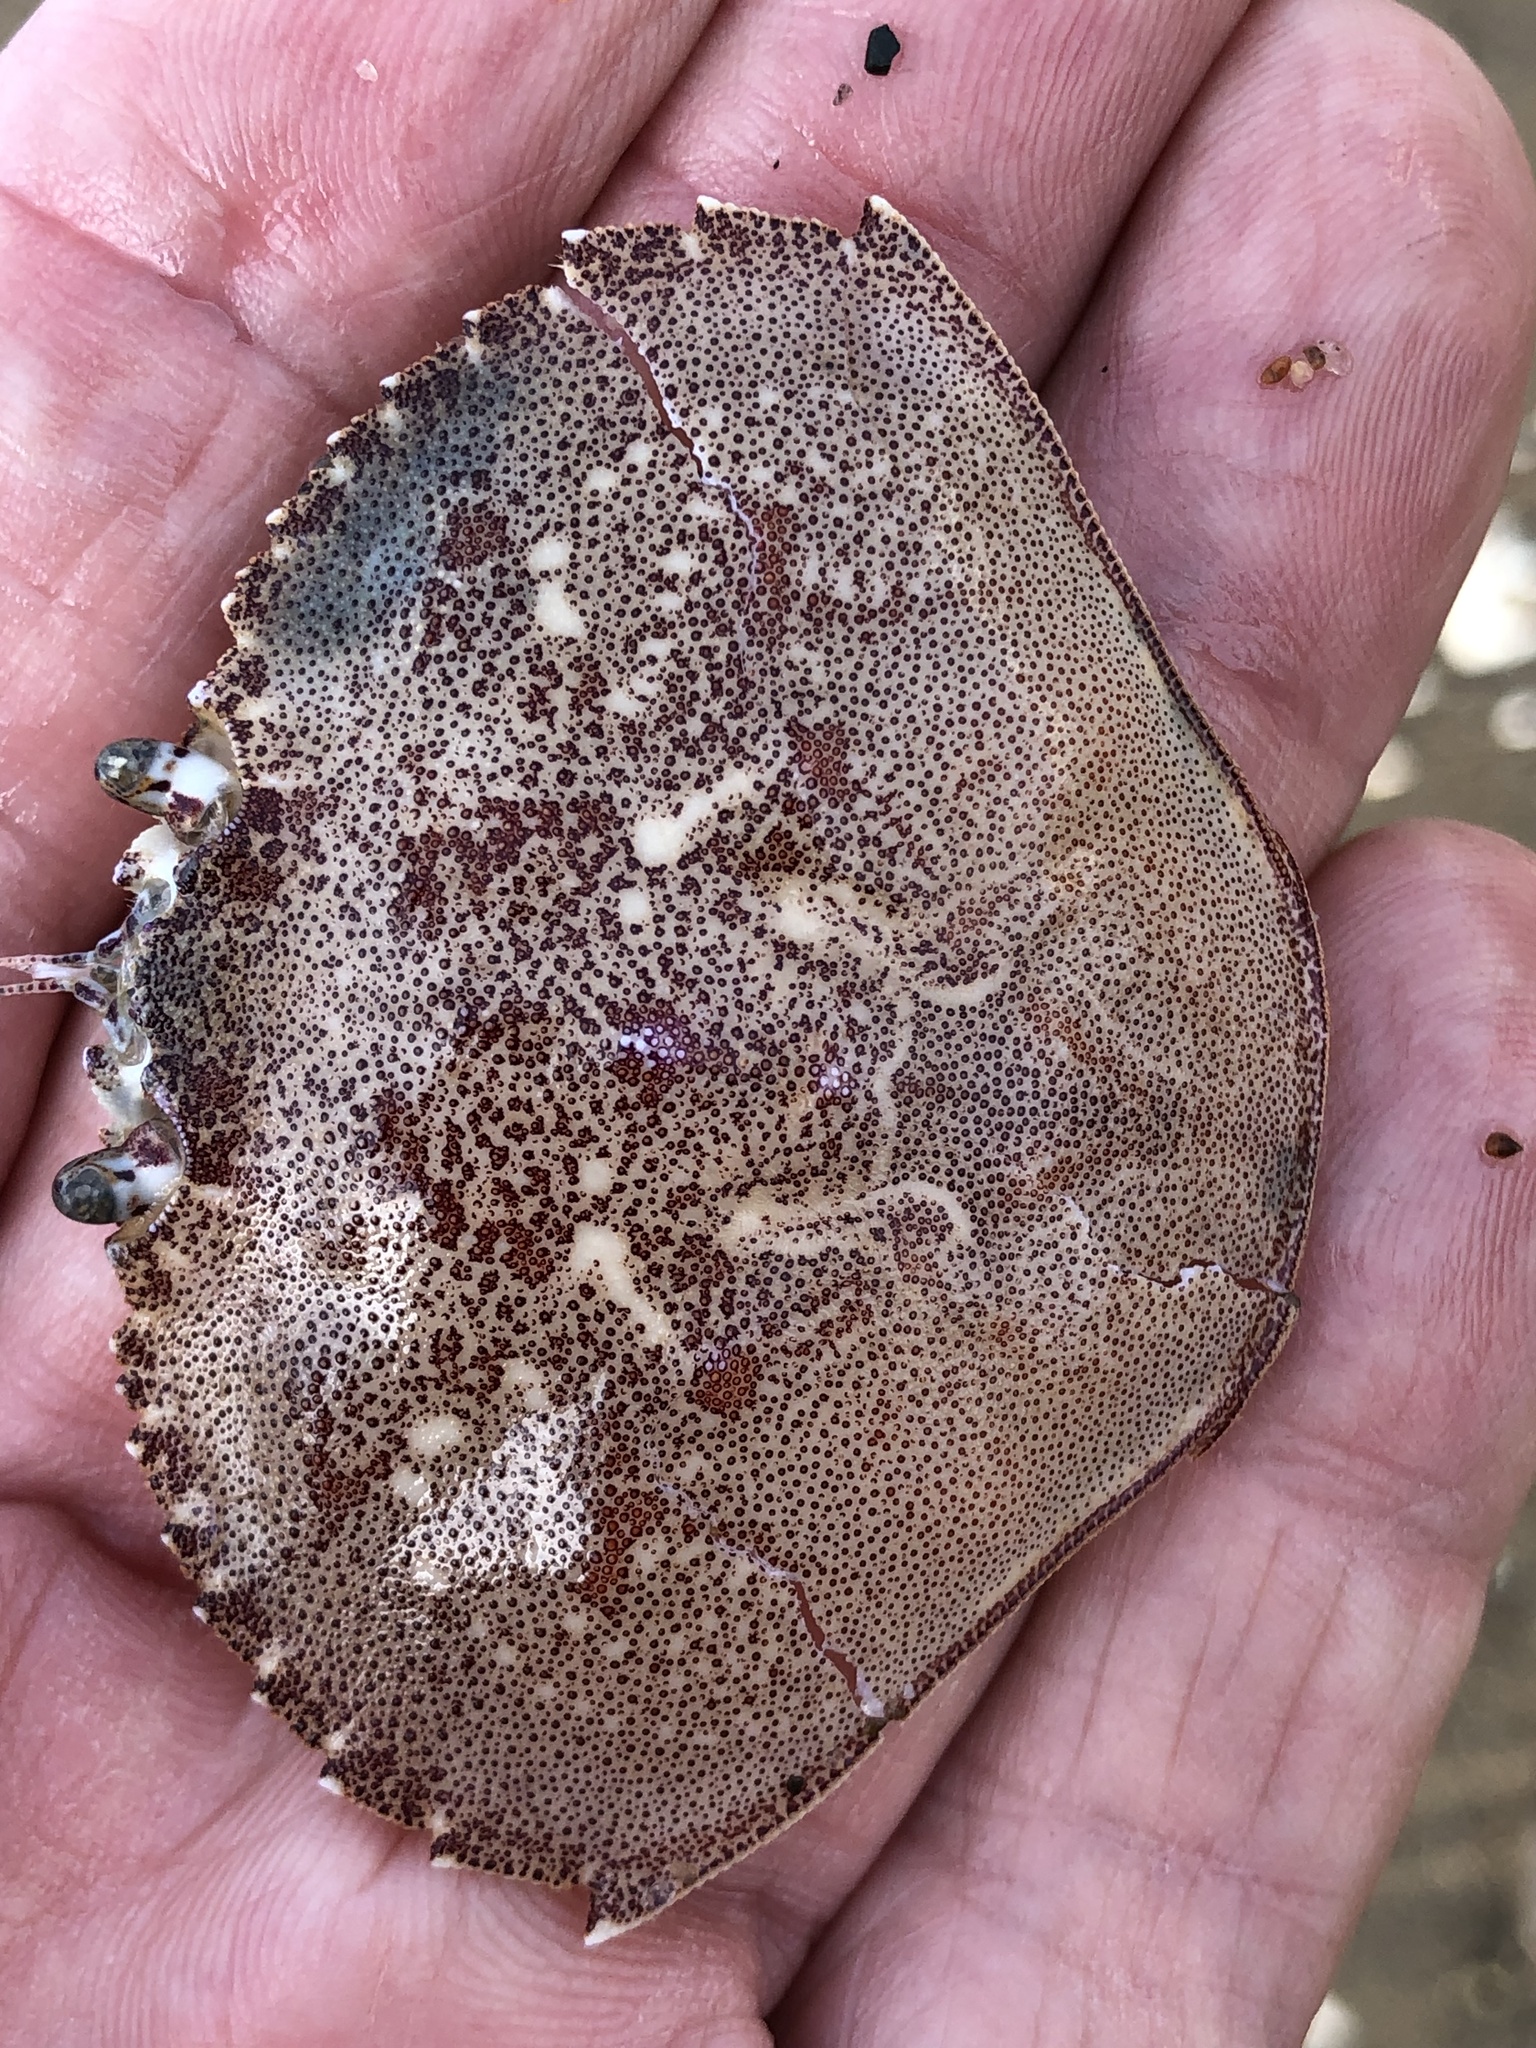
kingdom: Animalia
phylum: Arthropoda
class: Malacostraca
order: Decapoda
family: Cancridae
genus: Metacarcinus
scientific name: Metacarcinus magister
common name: Californian crab
